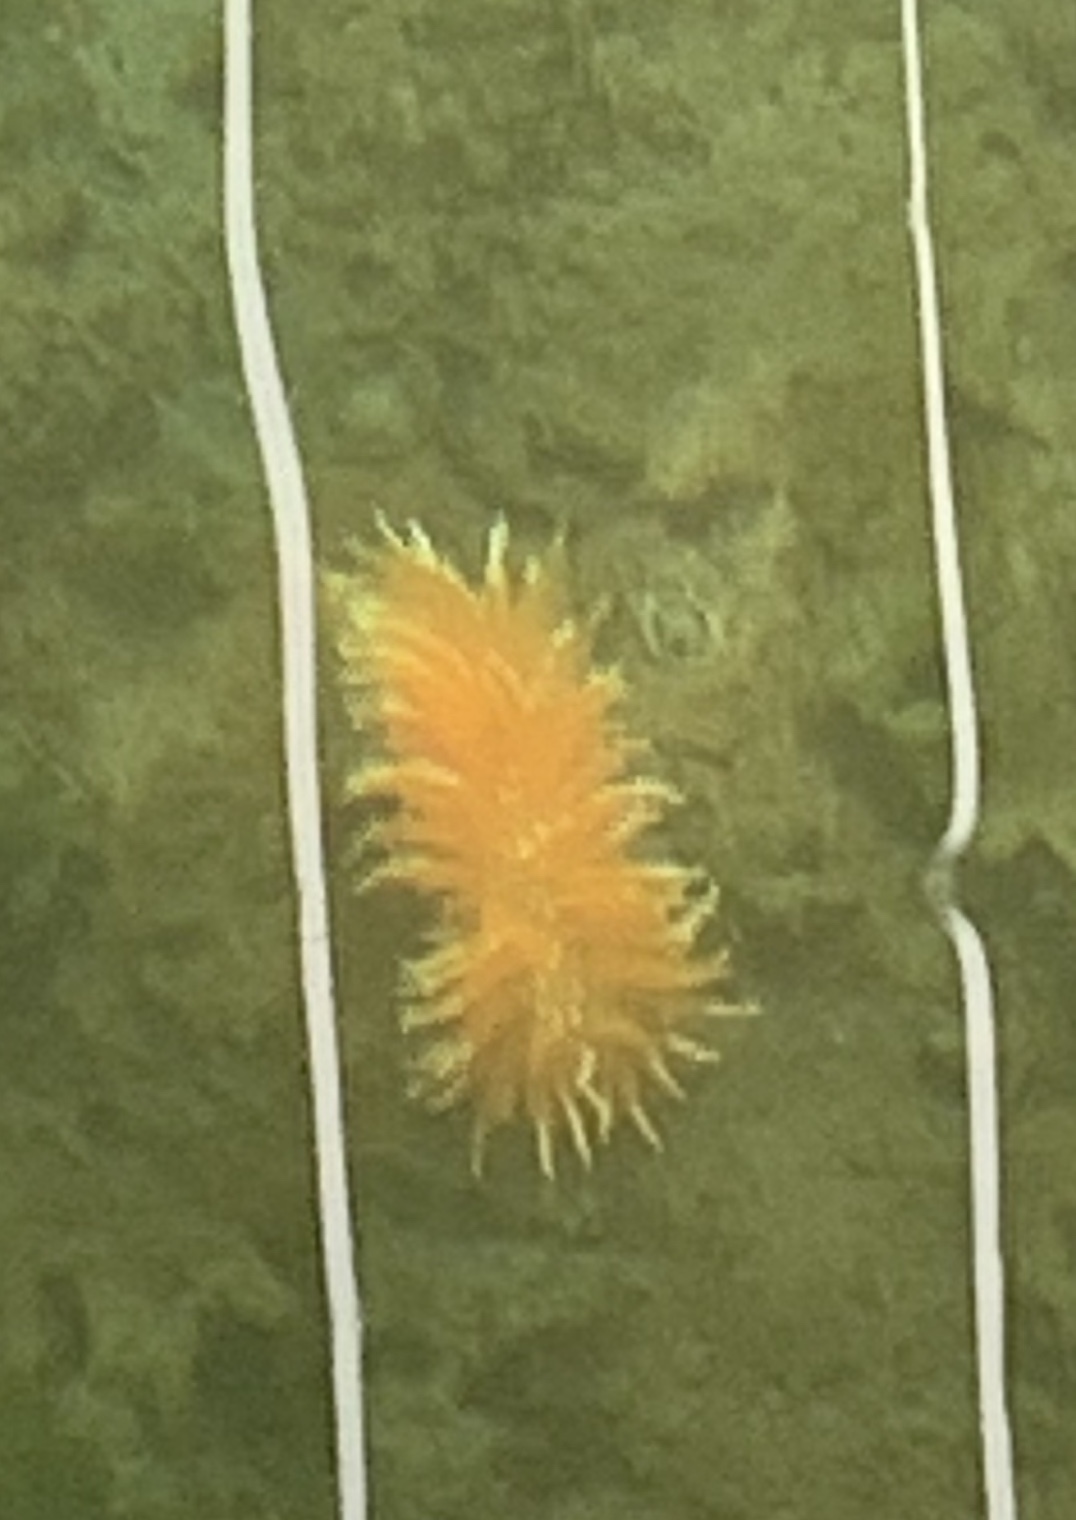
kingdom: Animalia
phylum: Mollusca
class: Gastropoda
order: Nudibranchia
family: Dironidae
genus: Dirona
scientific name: Dirona pellucida
